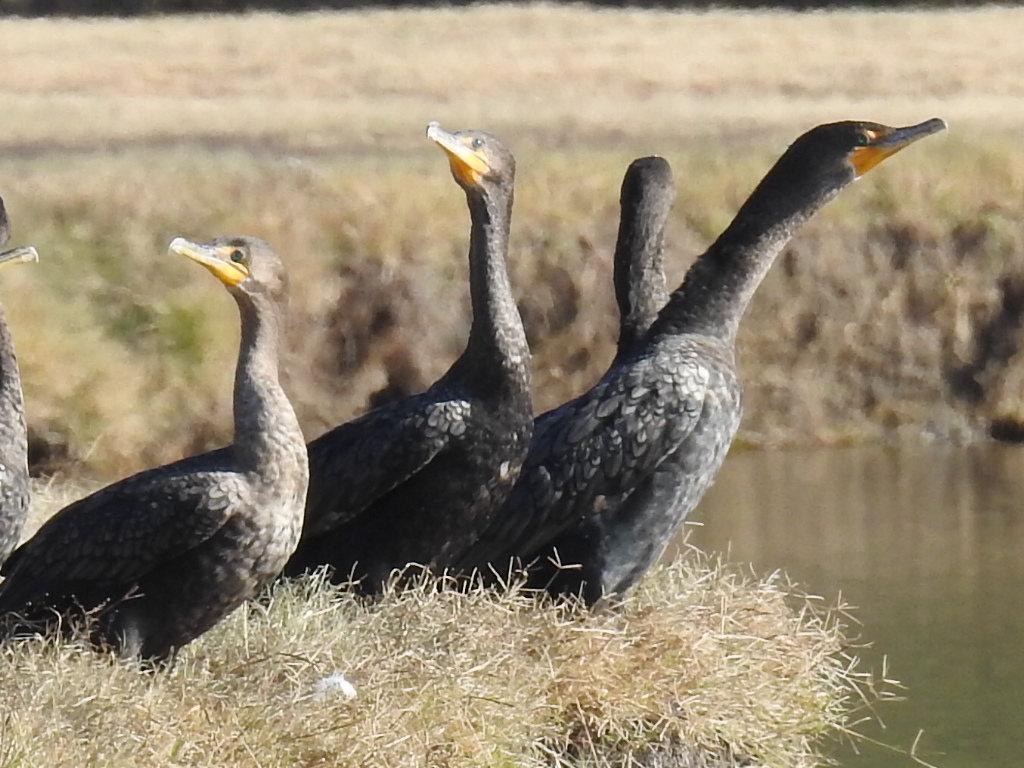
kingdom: Animalia
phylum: Chordata
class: Aves
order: Suliformes
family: Phalacrocoracidae
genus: Phalacrocorax
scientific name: Phalacrocorax auritus
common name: Double-crested cormorant
